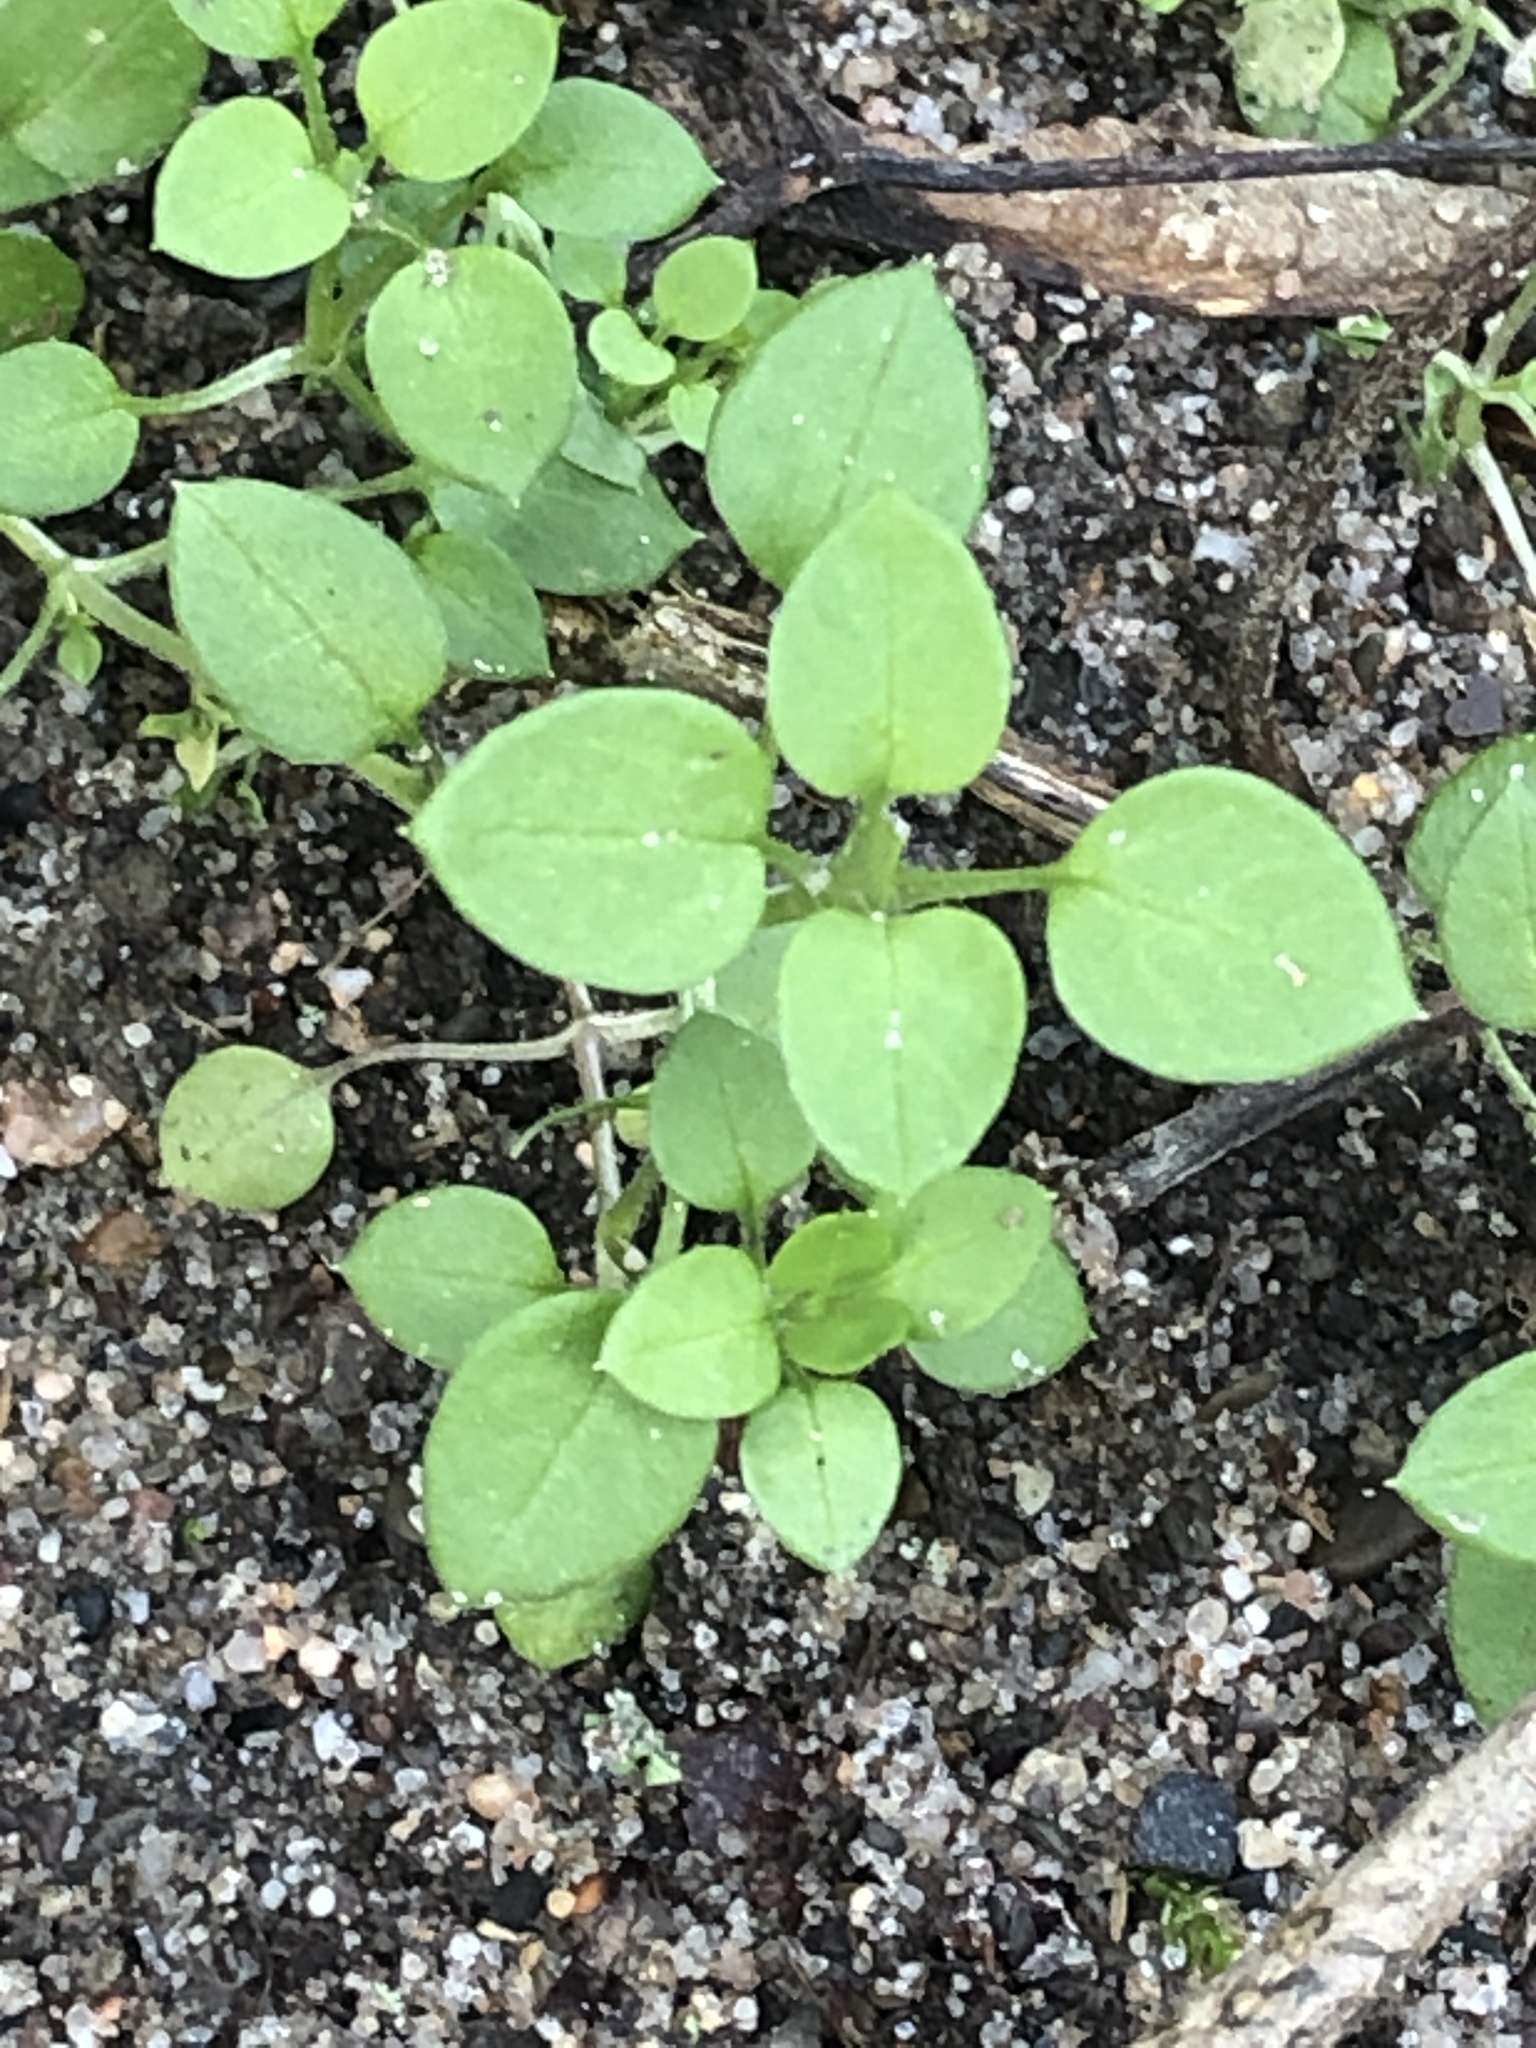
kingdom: Plantae
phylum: Tracheophyta
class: Magnoliopsida
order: Caryophyllales
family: Caryophyllaceae
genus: Stellaria
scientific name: Stellaria media
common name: Common chickweed
